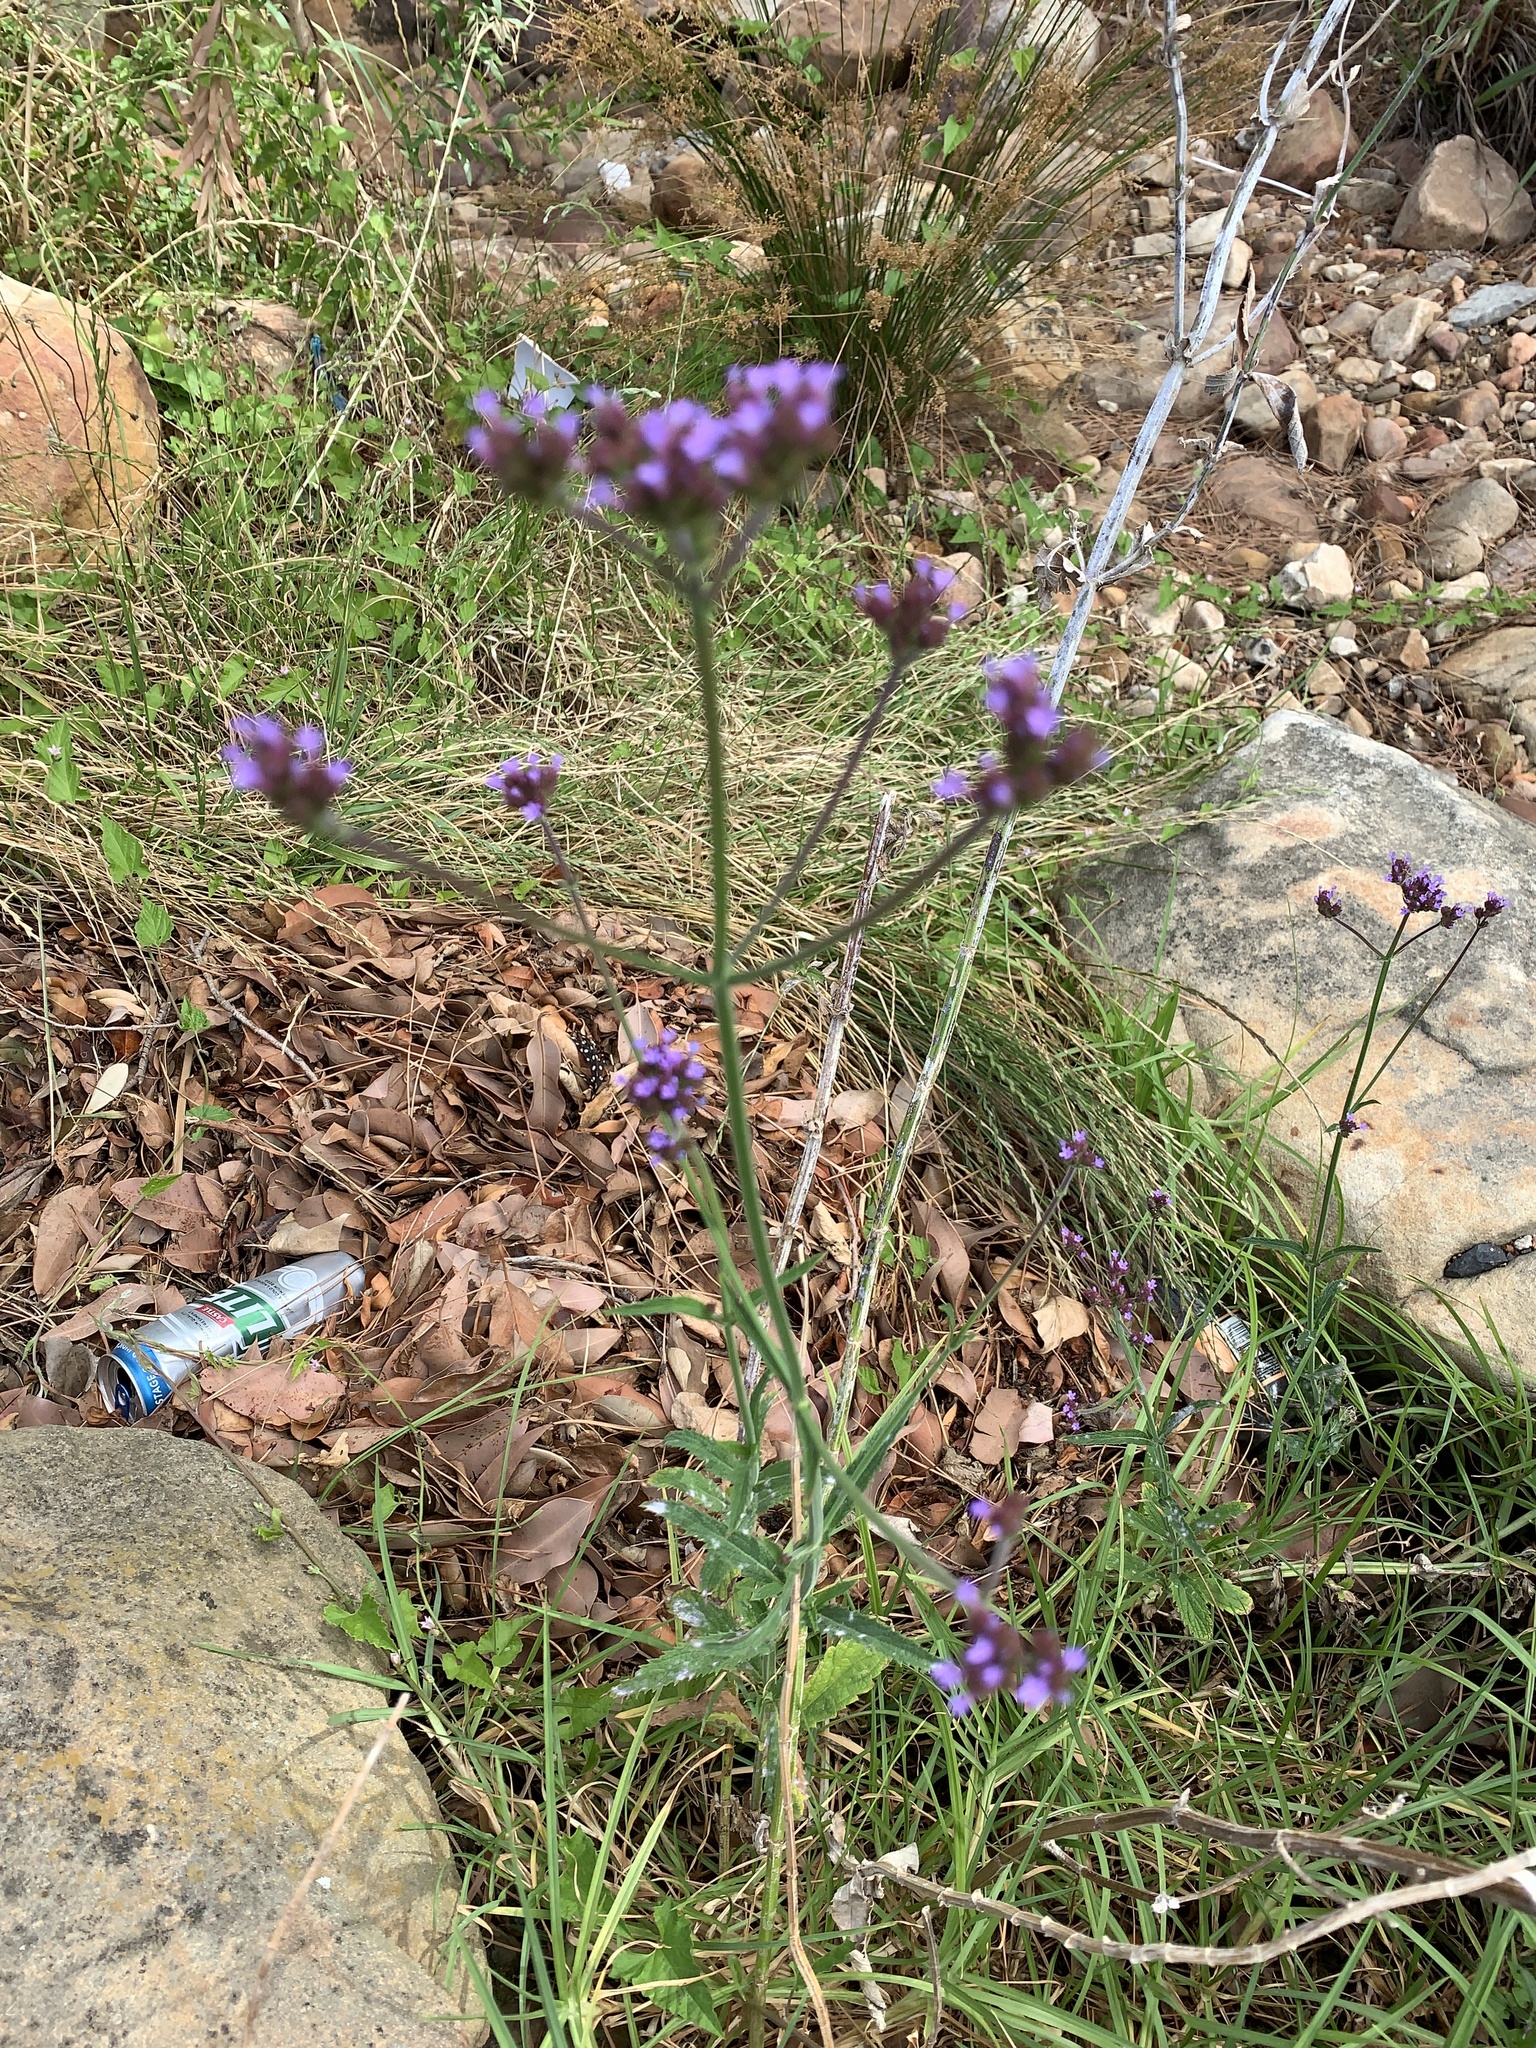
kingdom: Plantae
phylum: Tracheophyta
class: Magnoliopsida
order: Lamiales
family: Verbenaceae
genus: Verbena
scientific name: Verbena bonariensis
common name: Purpletop vervain
